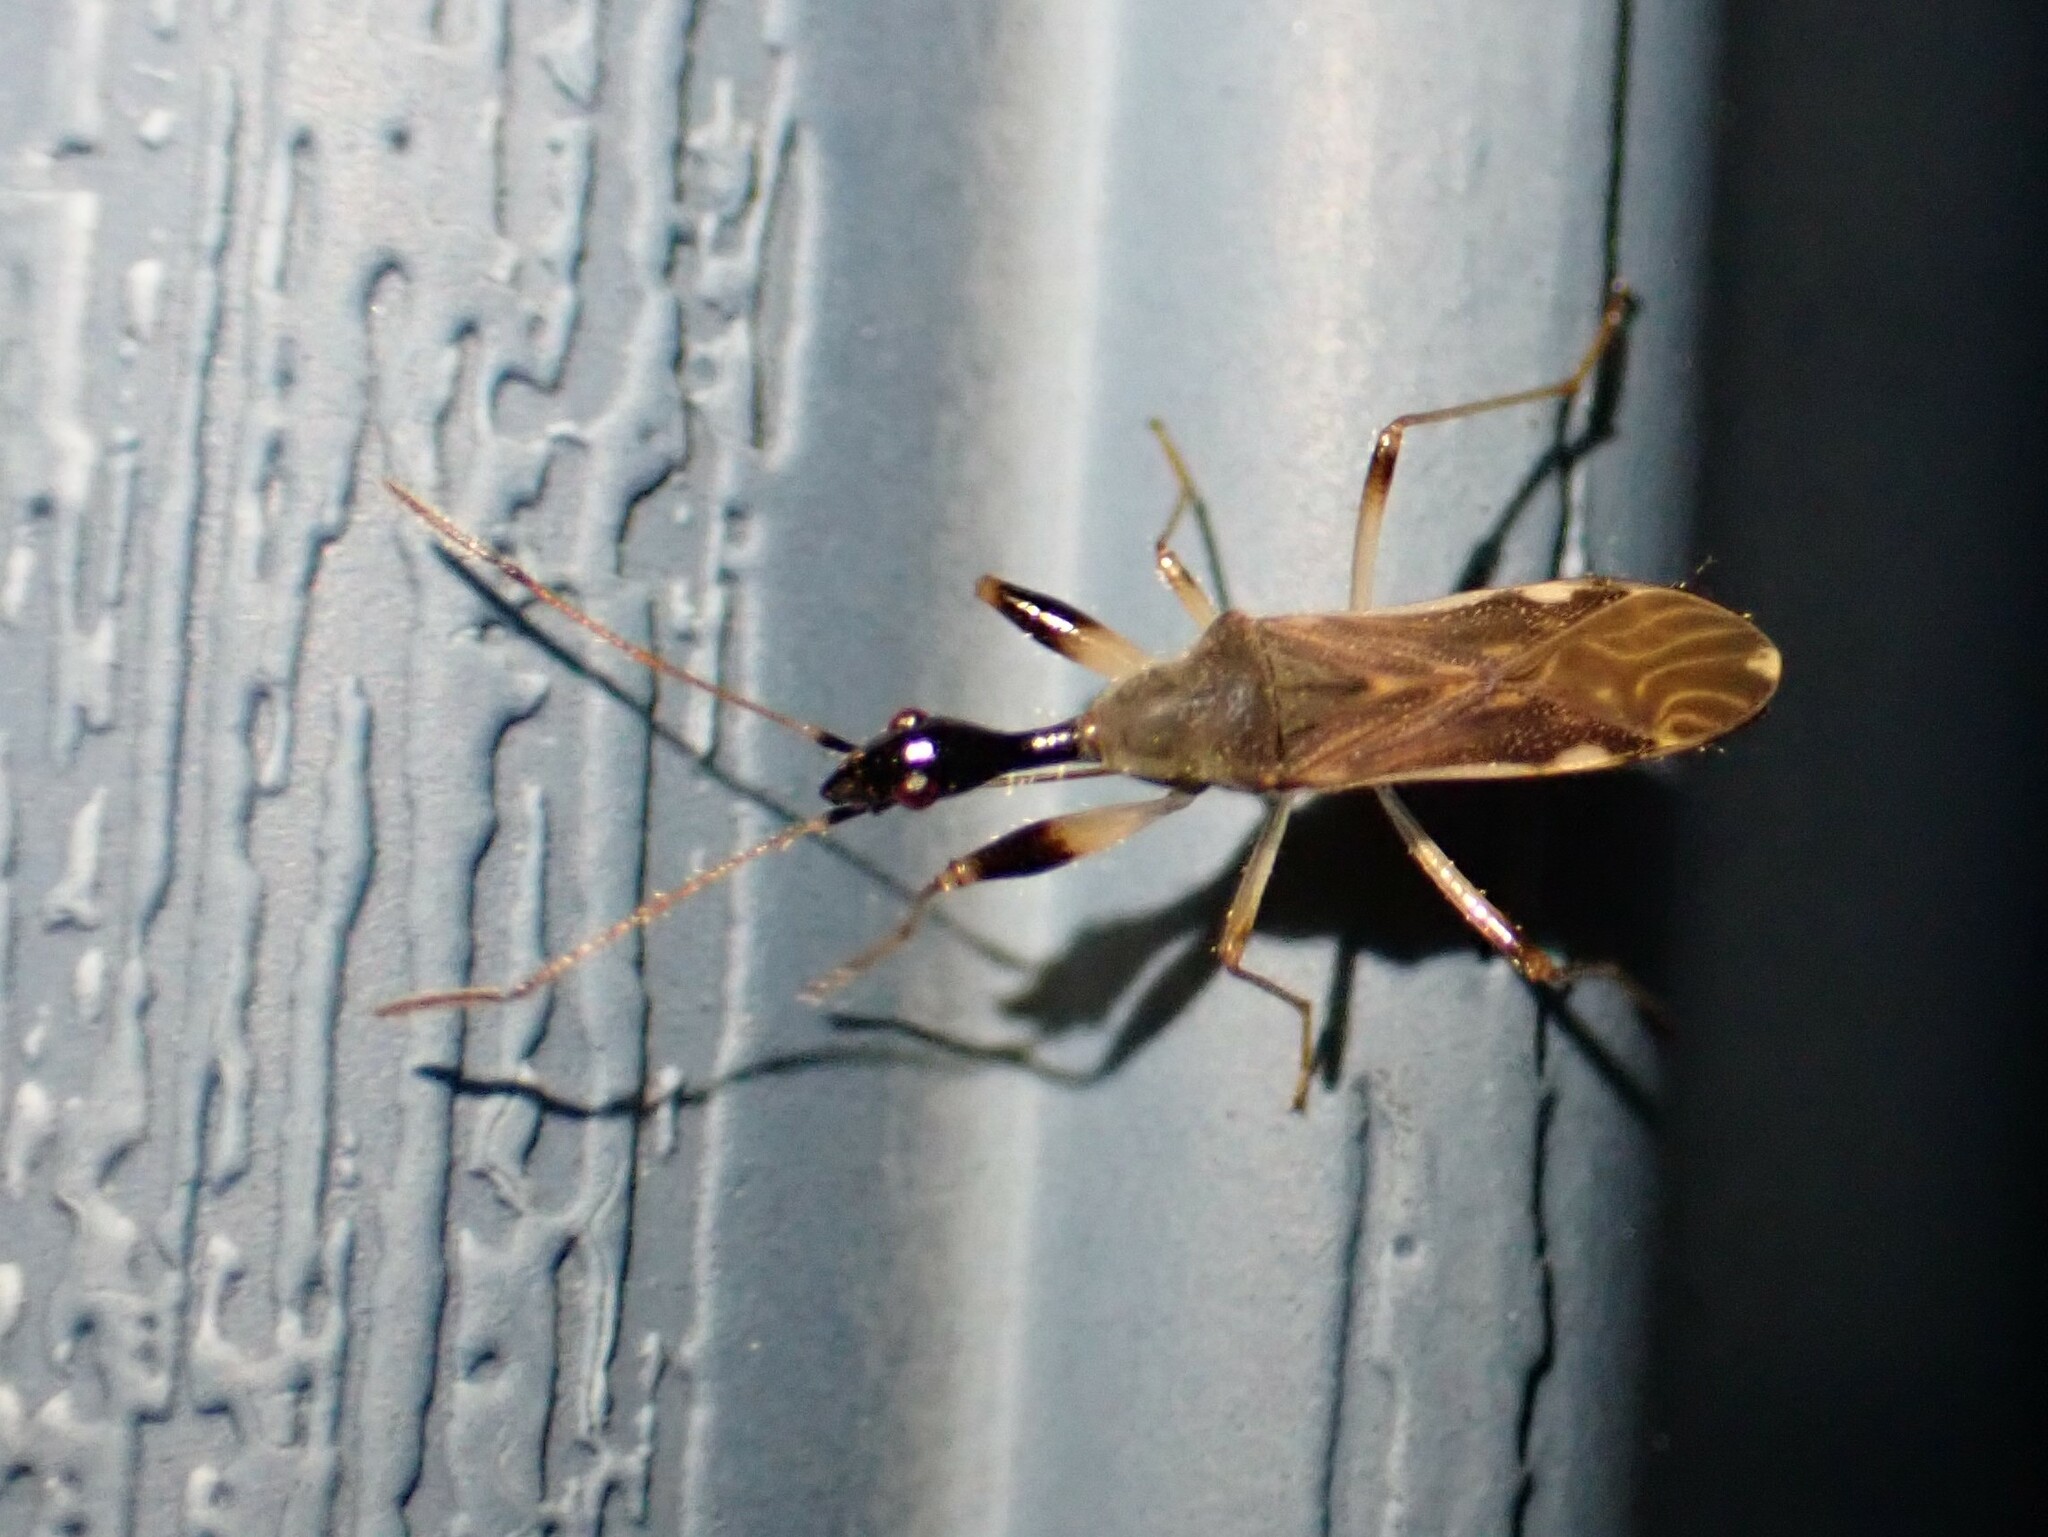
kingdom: Animalia
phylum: Arthropoda
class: Insecta
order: Hemiptera
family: Rhyparochromidae
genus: Myodocha
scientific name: Myodocha serripes
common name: Long-necked seed bug
